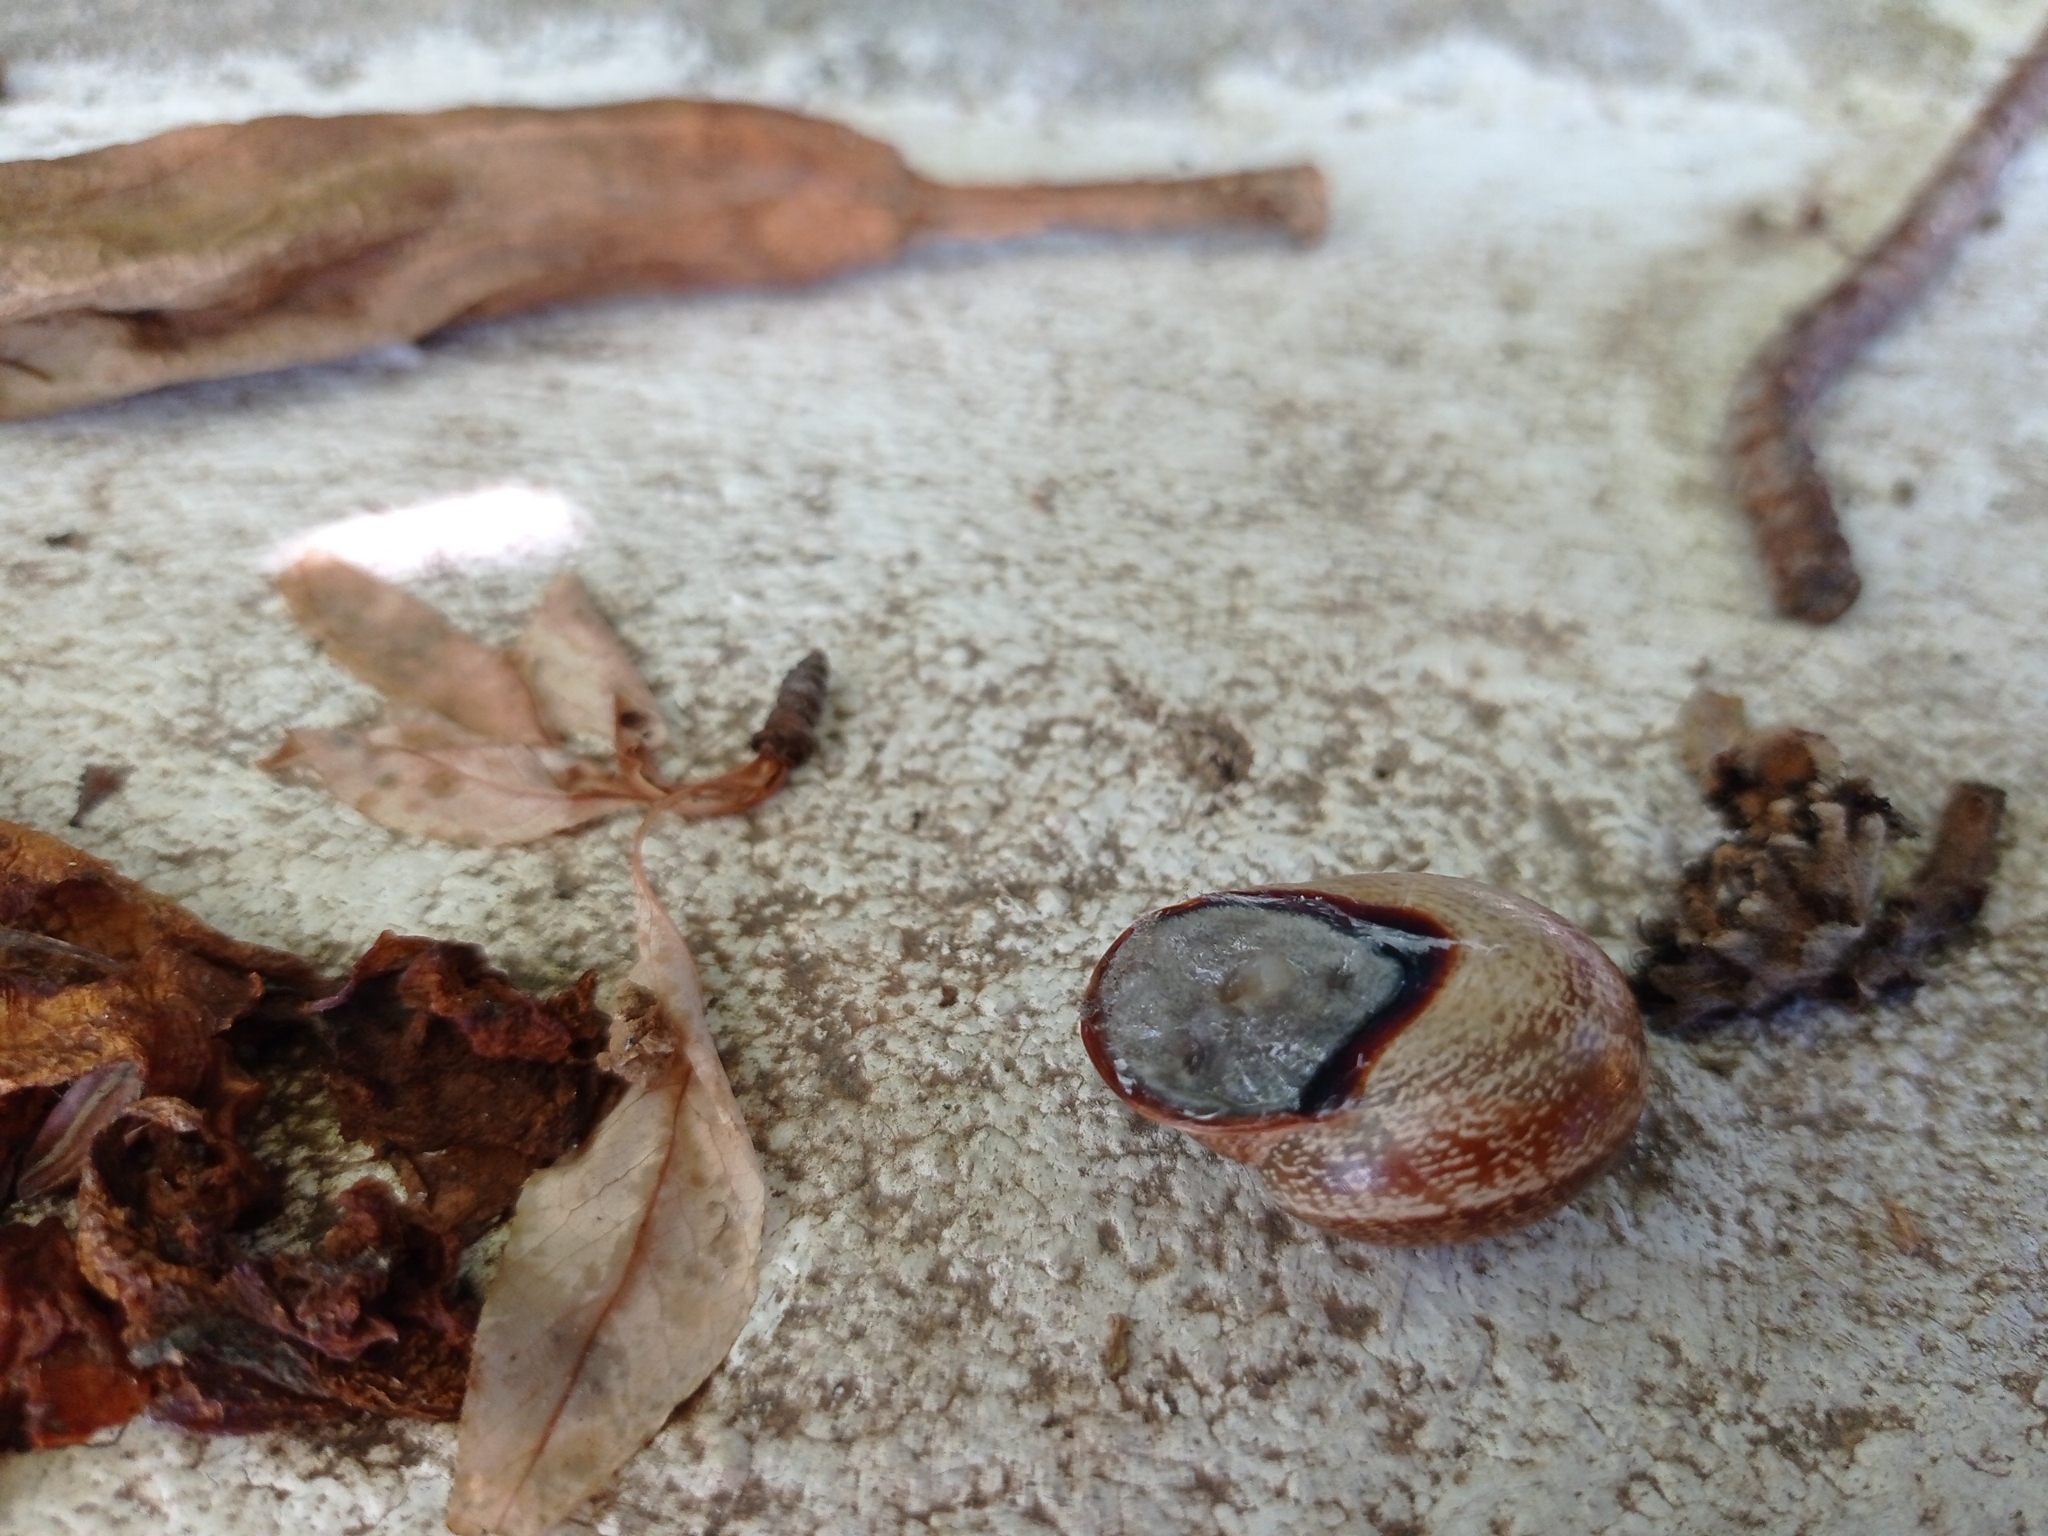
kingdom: Animalia
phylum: Mollusca
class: Gastropoda
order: Stylommatophora
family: Helicidae
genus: Otala
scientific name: Otala lactea
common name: Milk snail
